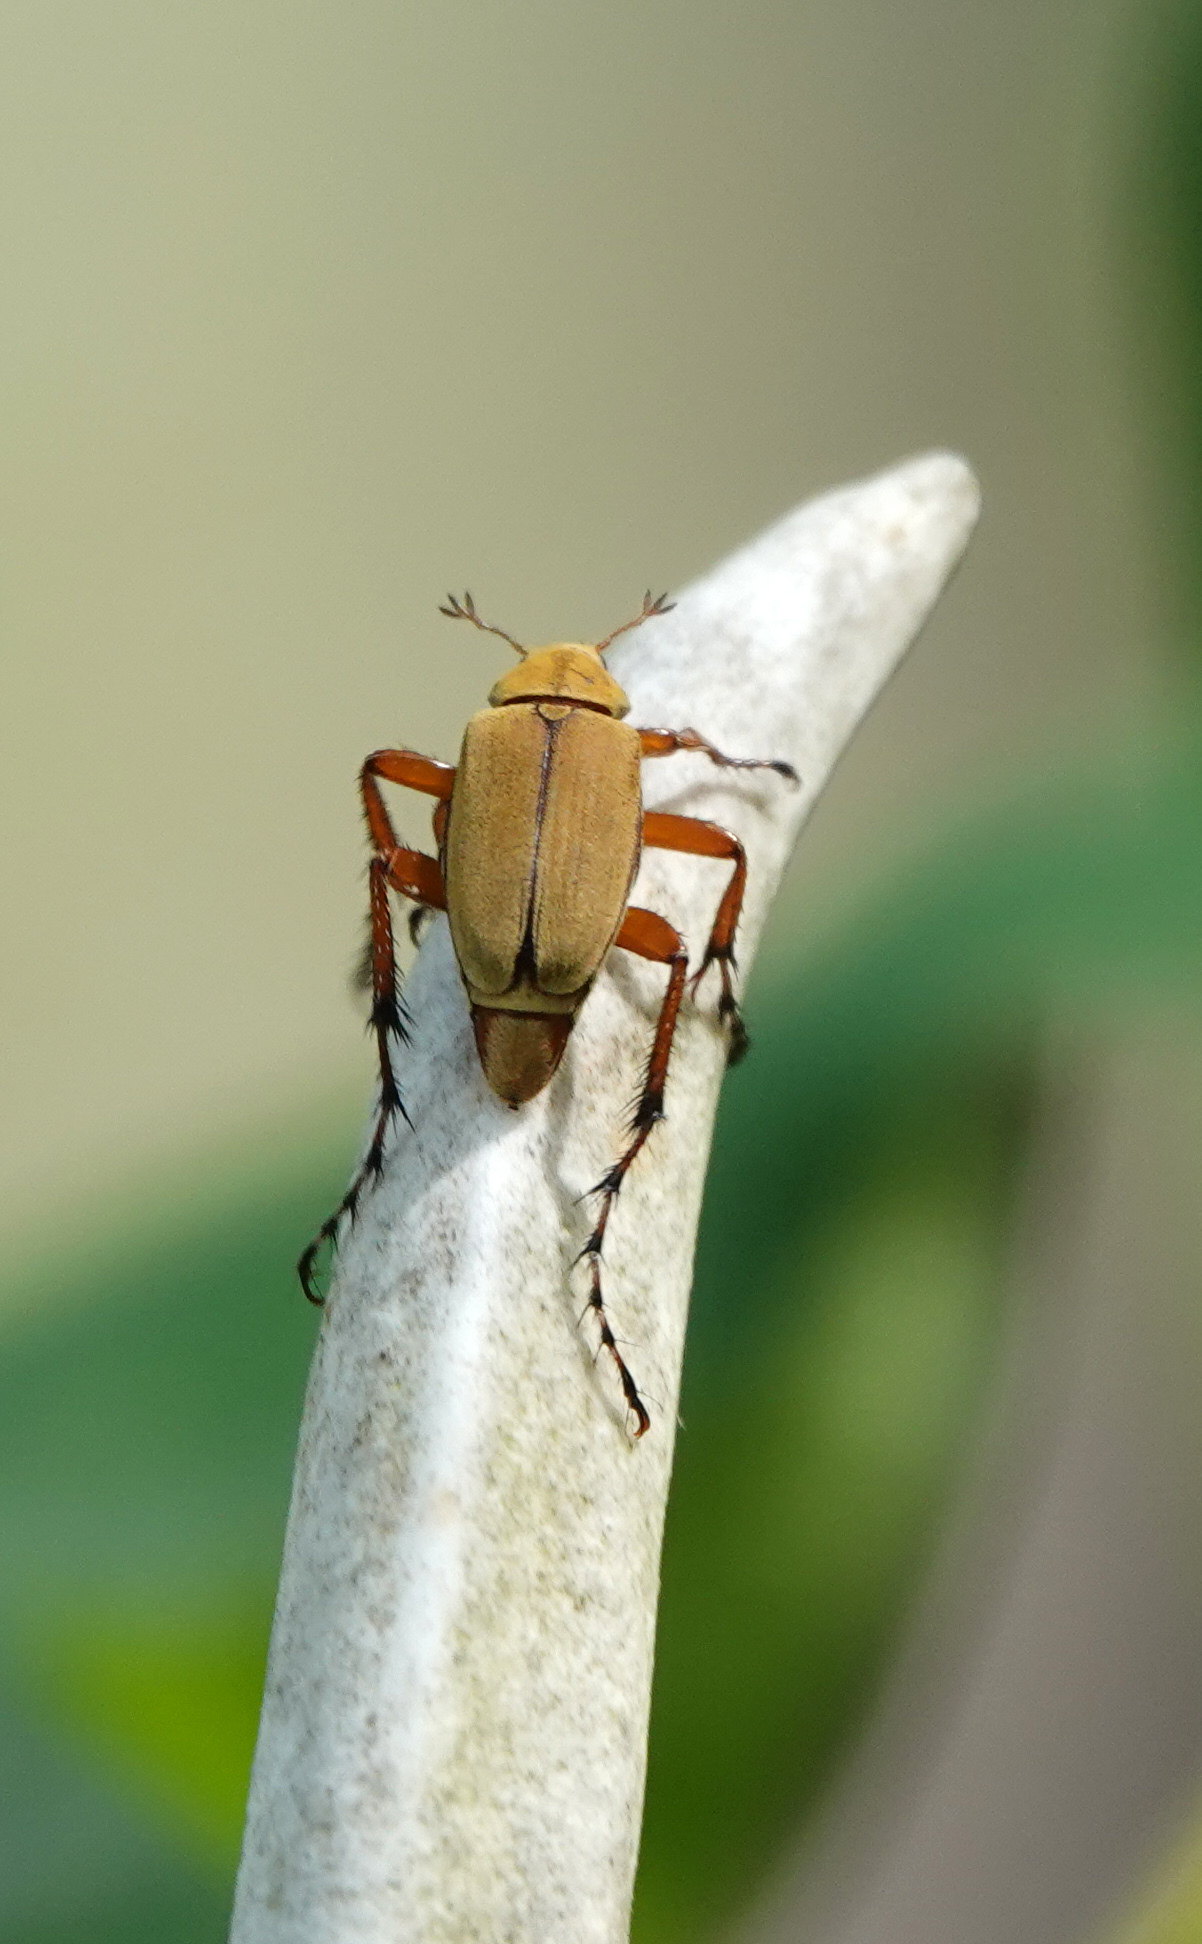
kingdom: Animalia
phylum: Arthropoda
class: Insecta
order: Coleoptera
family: Scarabaeidae
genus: Macrodactylus
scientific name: Macrodactylus subspinosus
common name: American rose chafer
